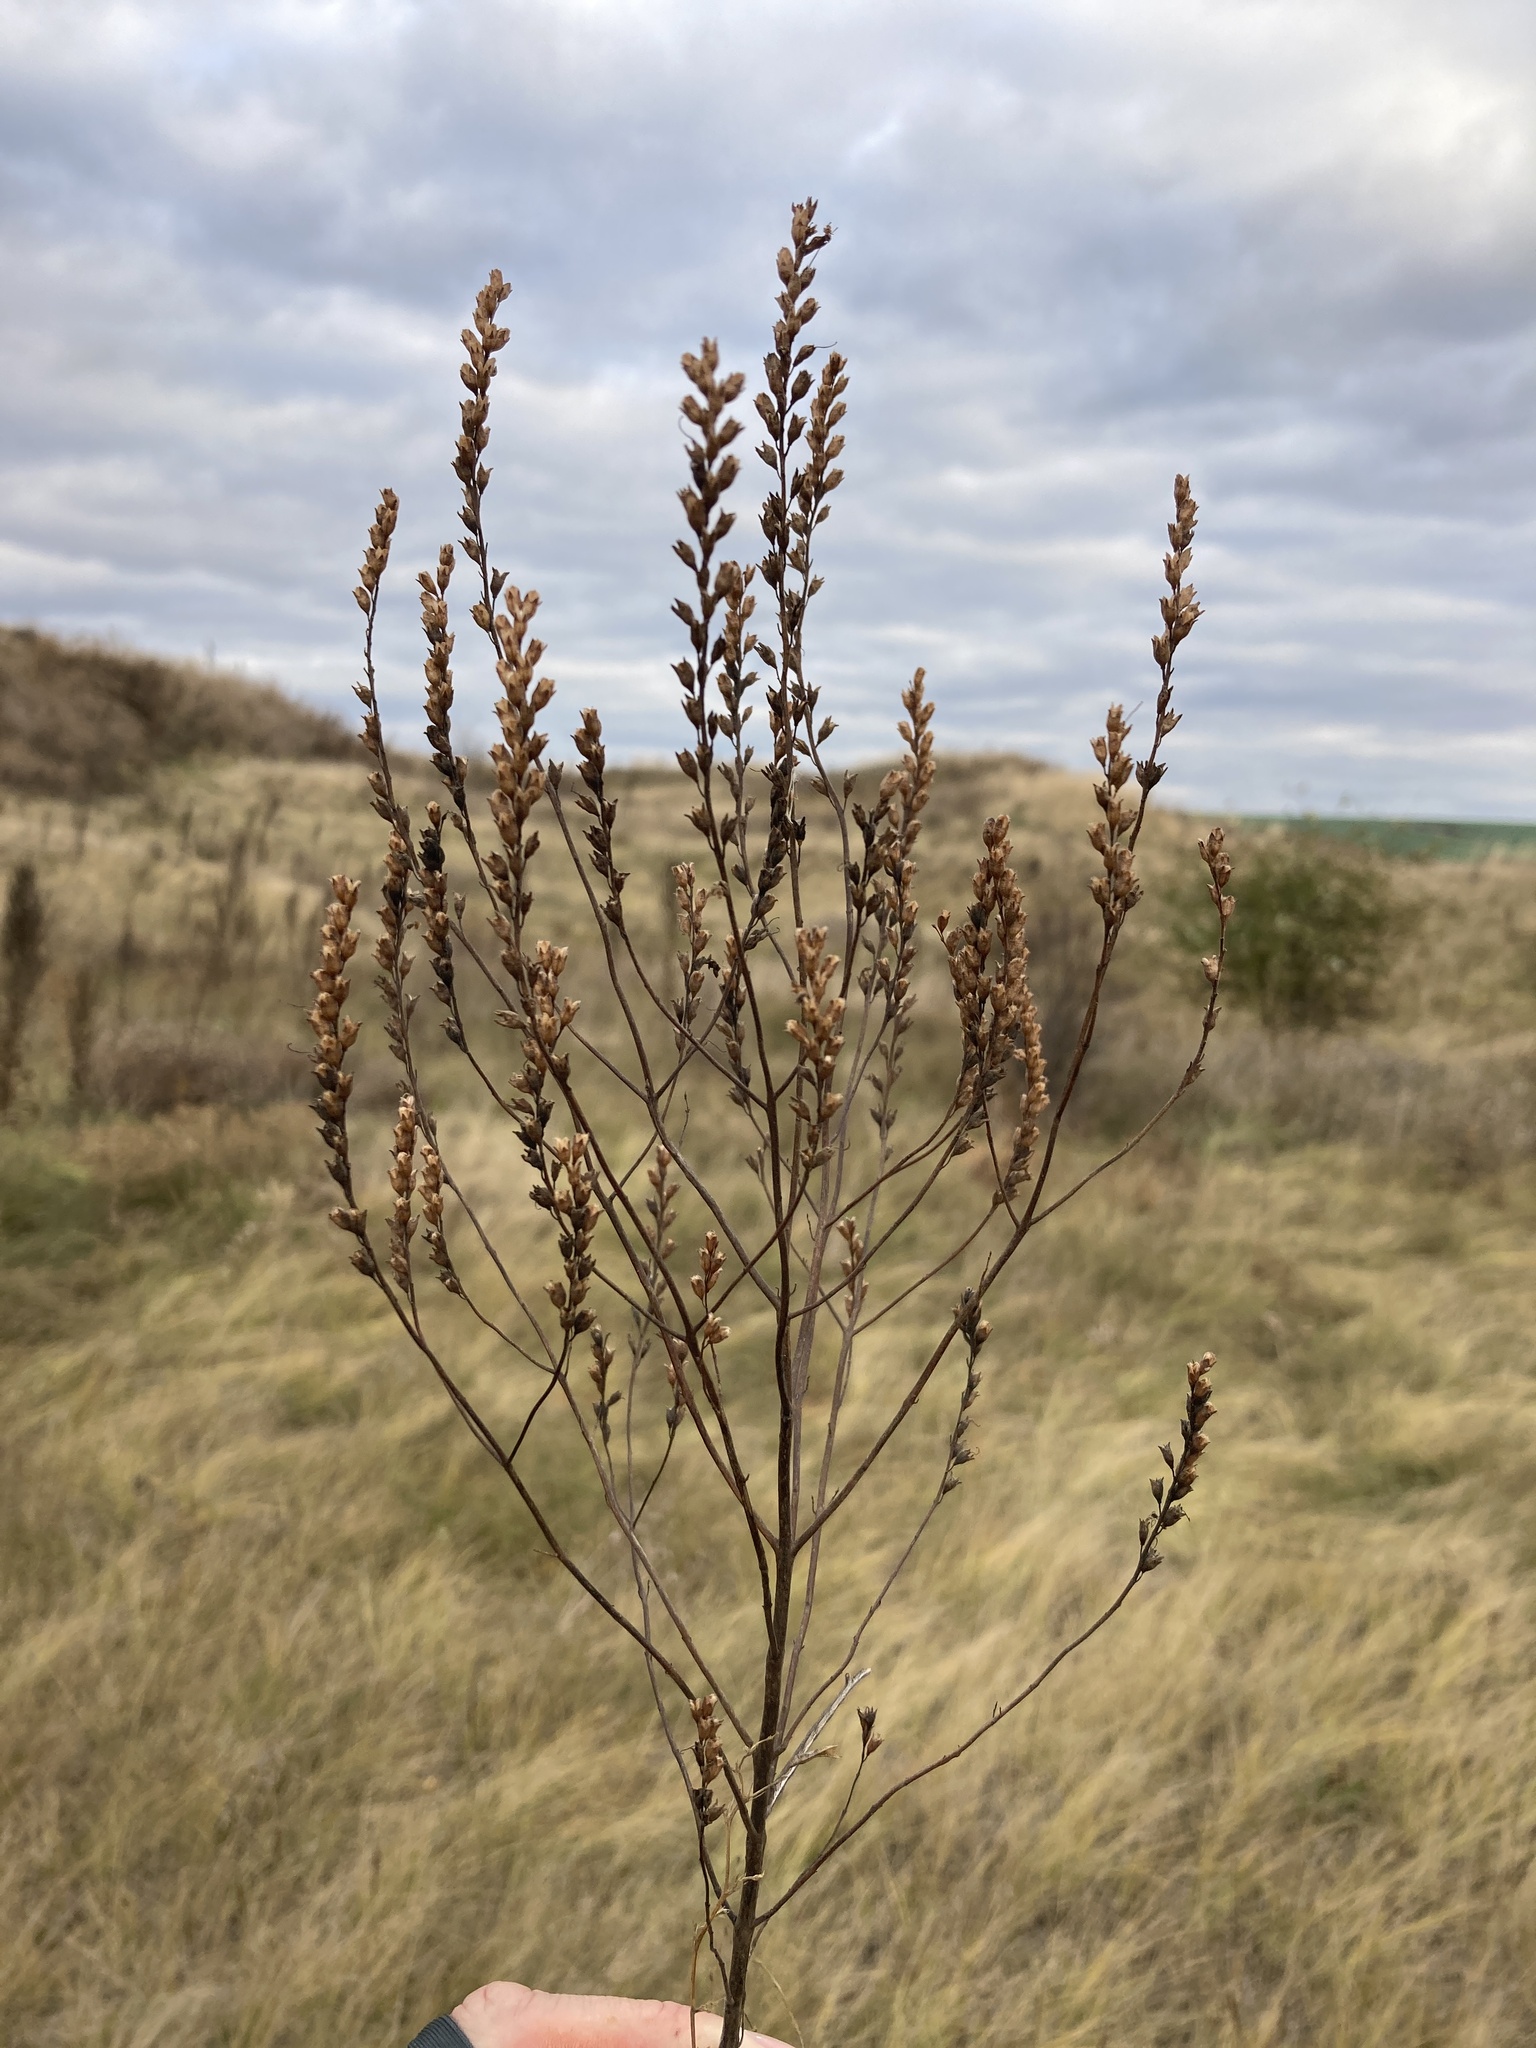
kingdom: Plantae
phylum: Tracheophyta
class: Magnoliopsida
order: Lamiales
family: Orobanchaceae
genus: Odontites
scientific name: Odontites vulgaris
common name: Broomrape
